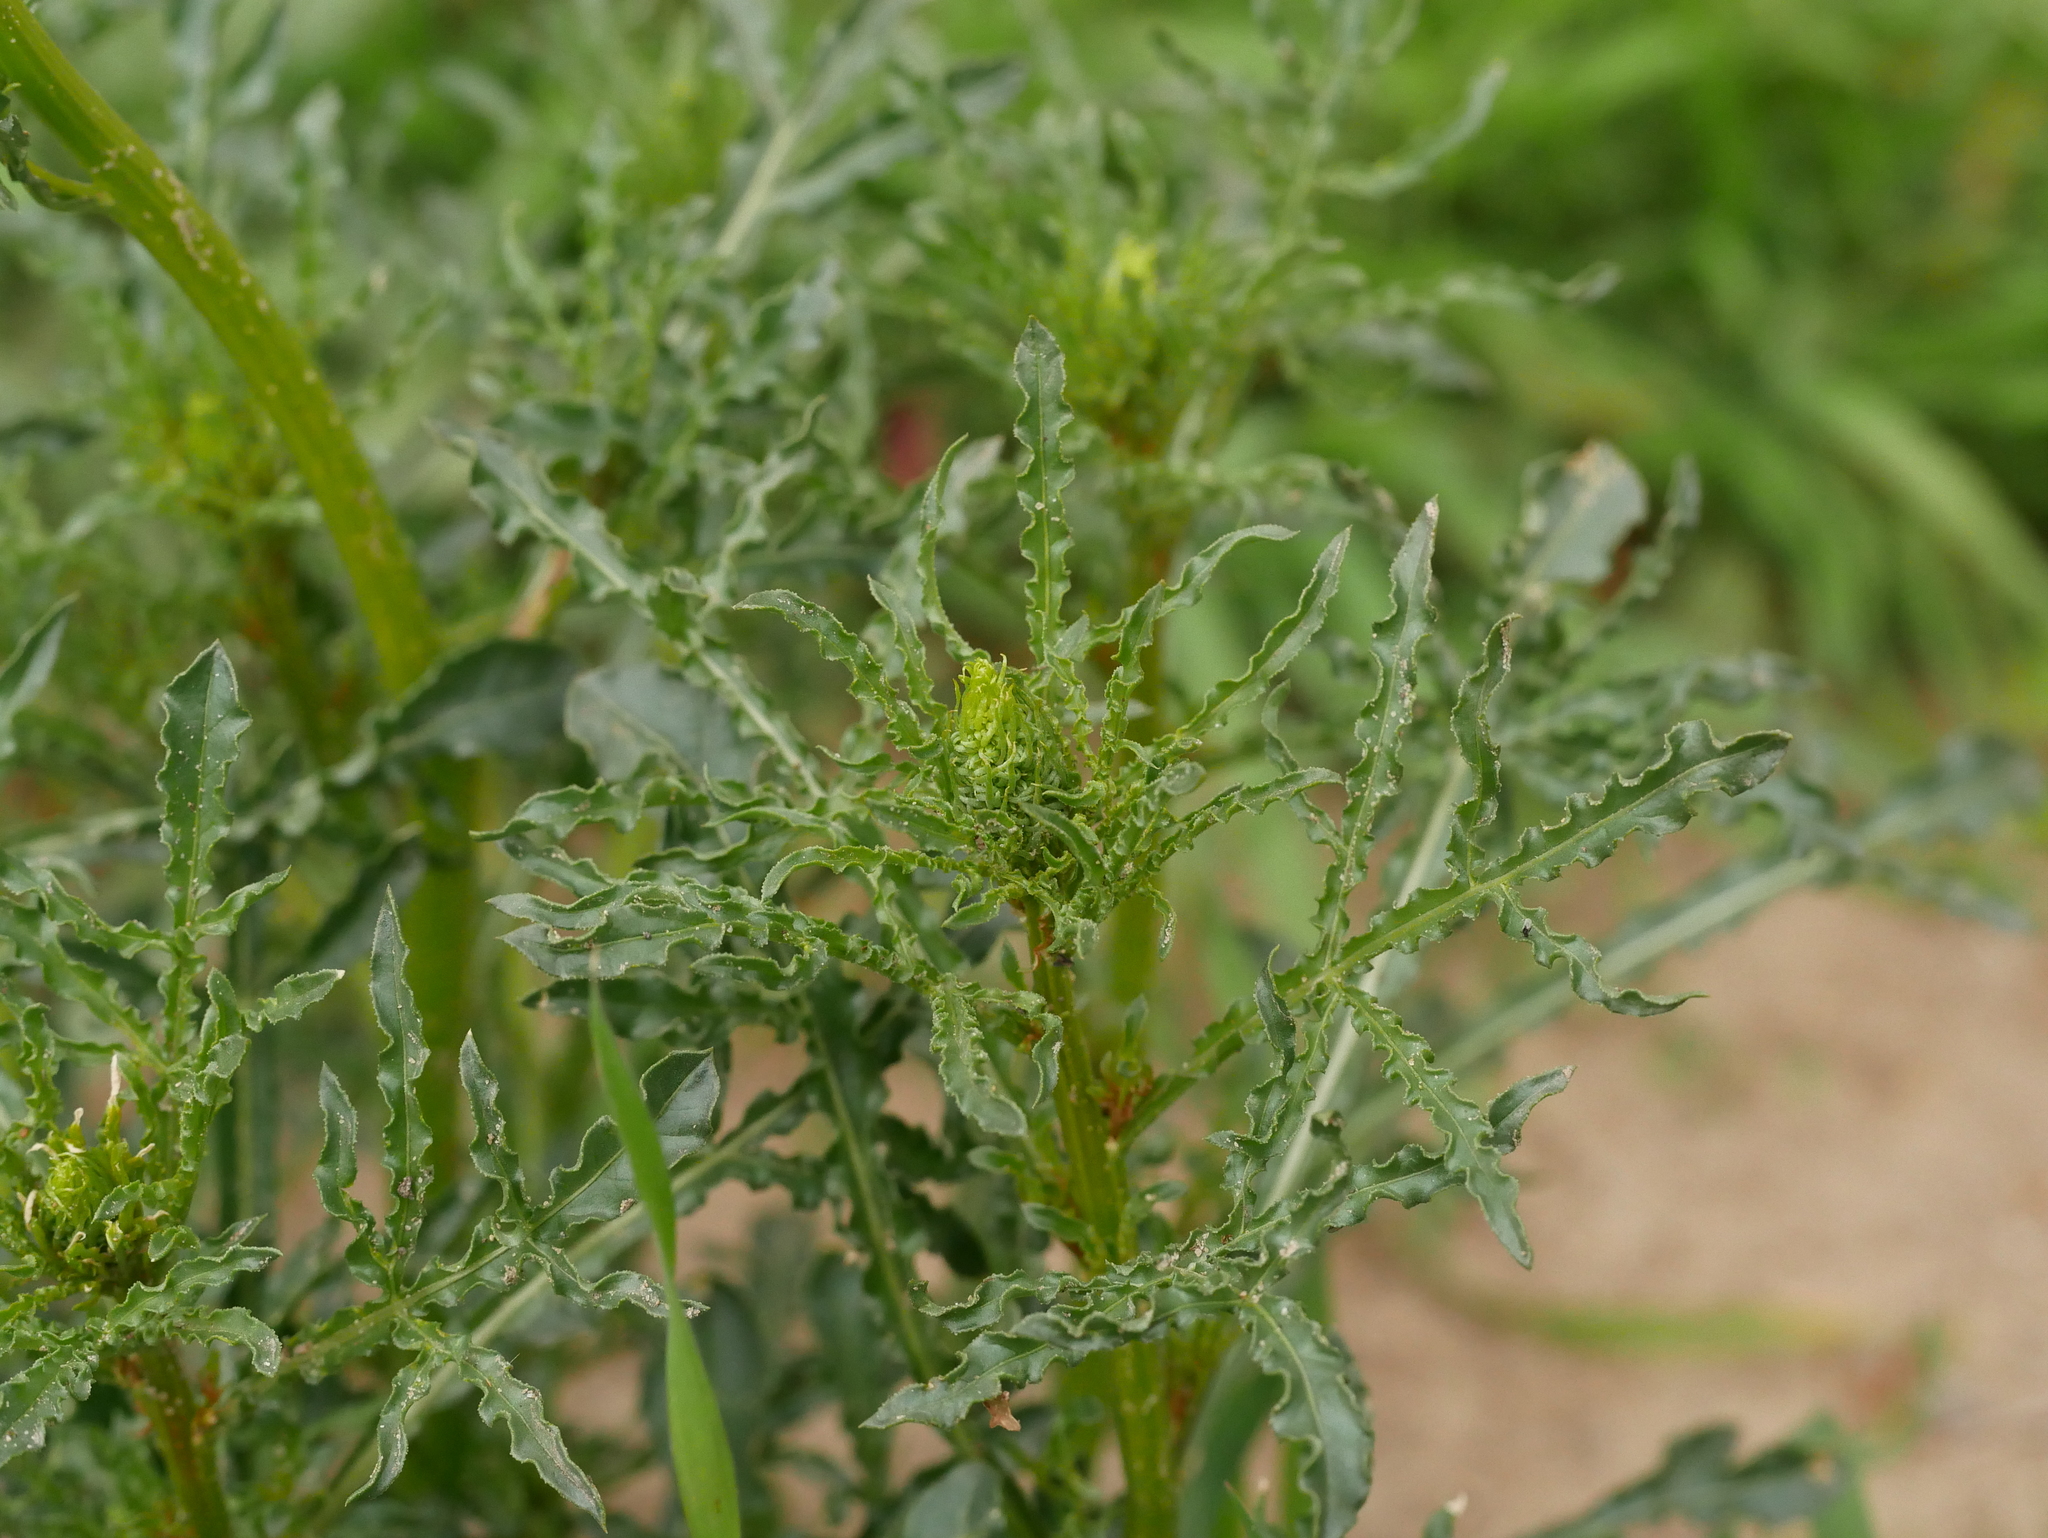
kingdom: Plantae
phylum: Tracheophyta
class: Magnoliopsida
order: Brassicales
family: Resedaceae
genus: Reseda
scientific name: Reseda lutea
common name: Wild mignonette
